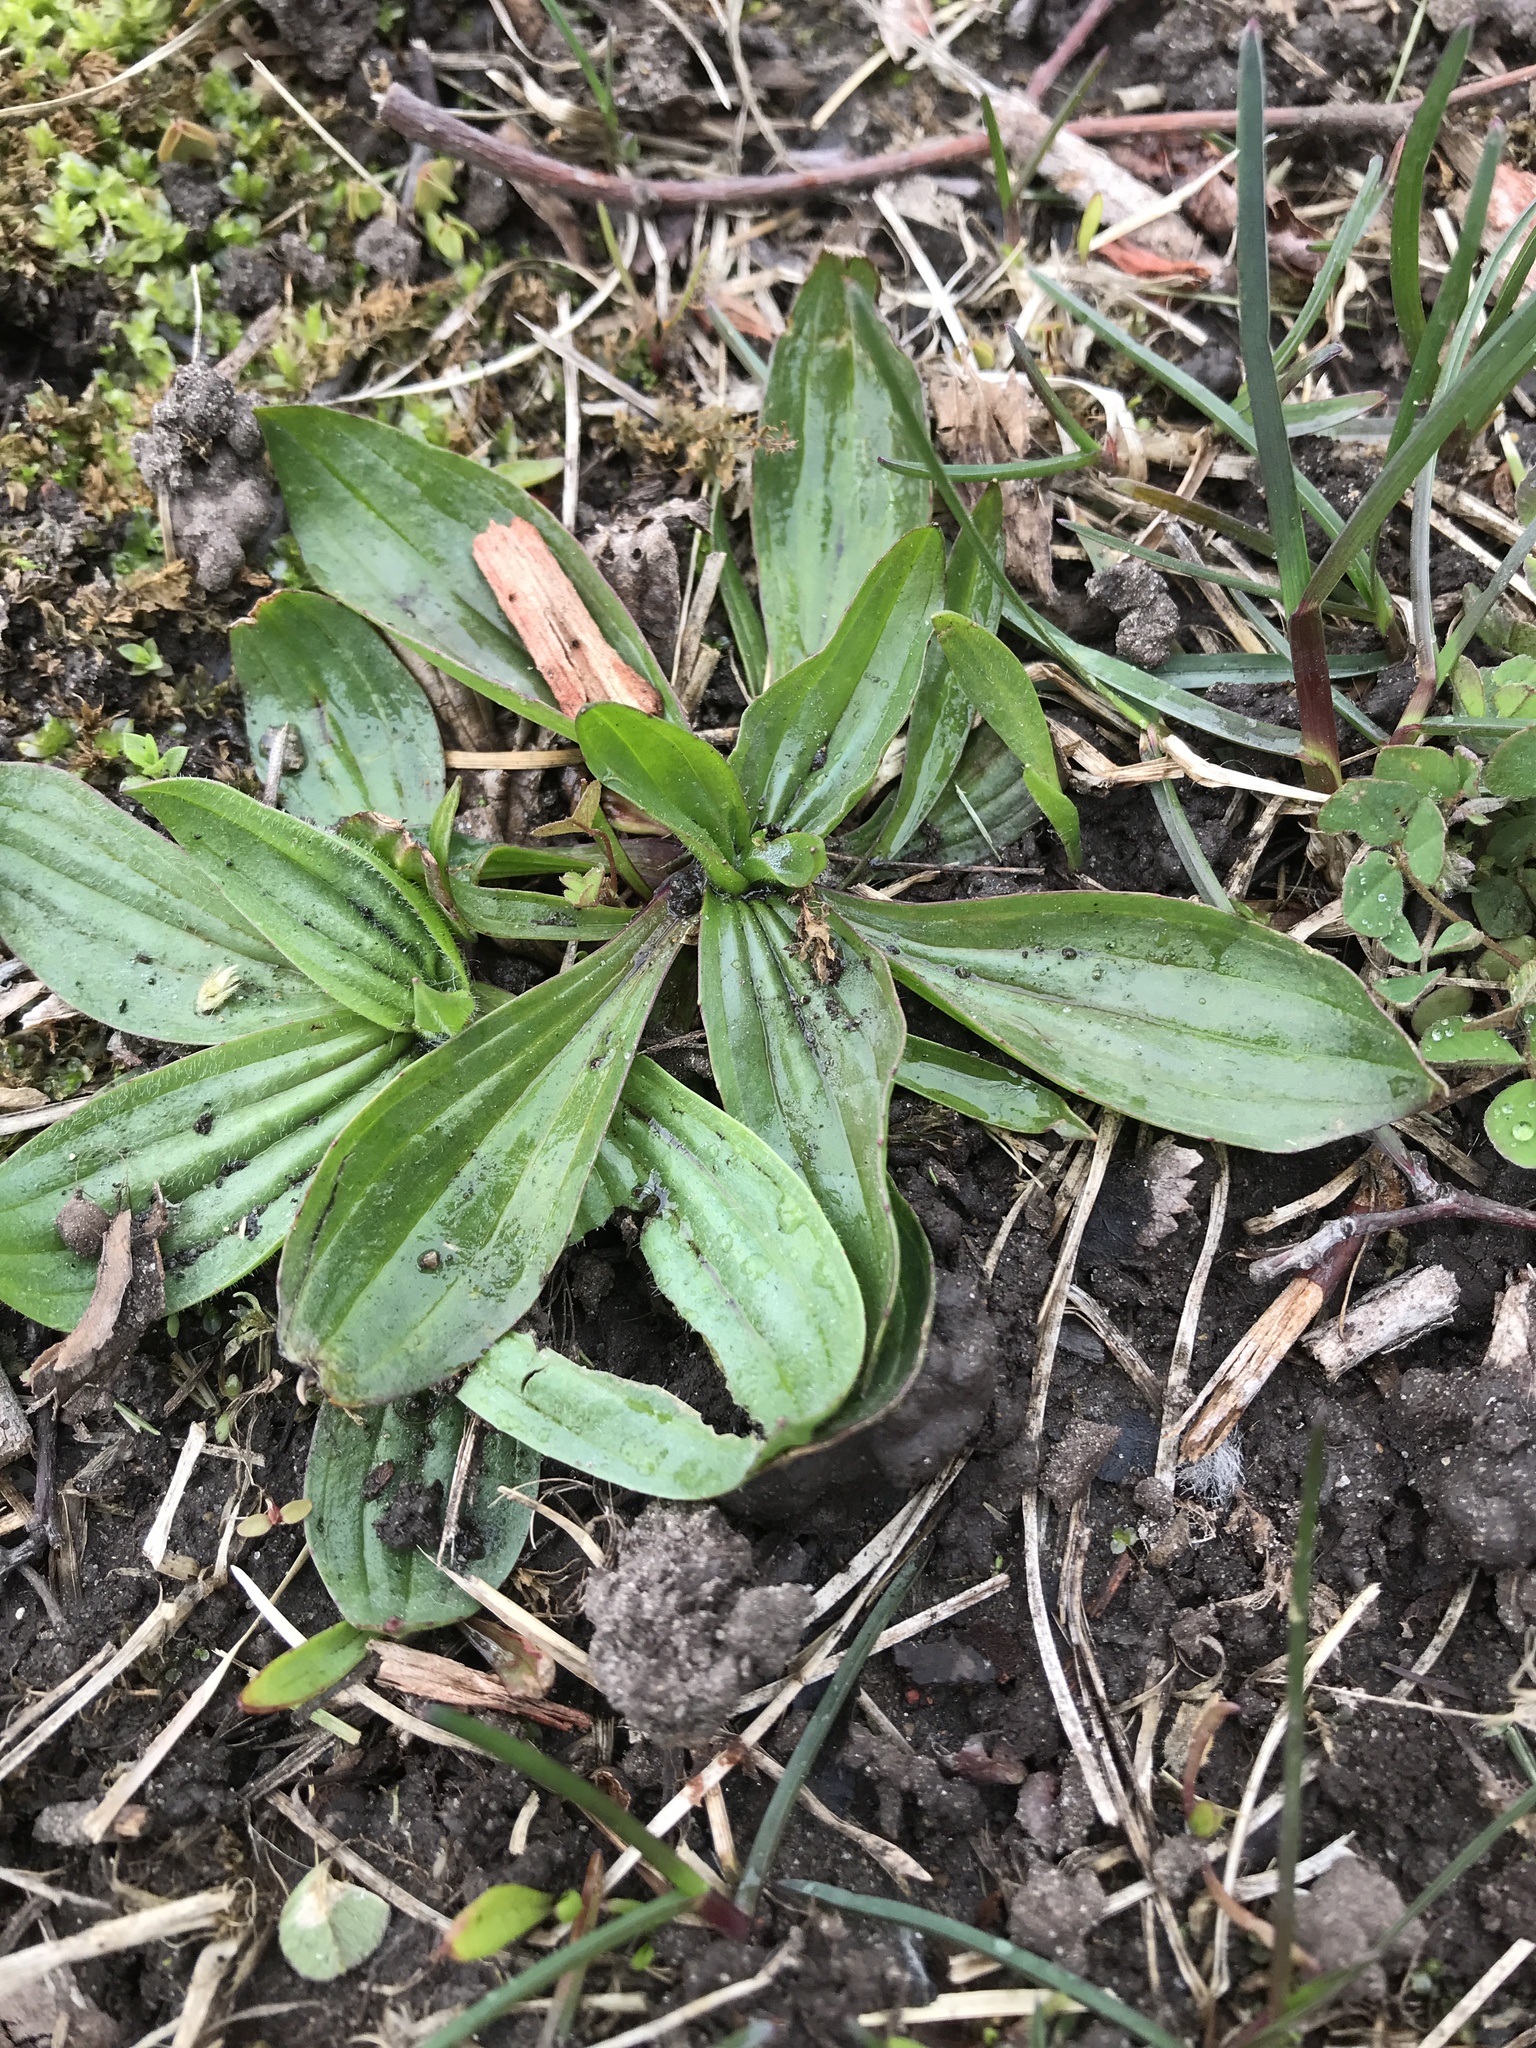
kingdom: Plantae
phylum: Tracheophyta
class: Magnoliopsida
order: Lamiales
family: Plantaginaceae
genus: Plantago
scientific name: Plantago lanceolata
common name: Ribwort plantain
